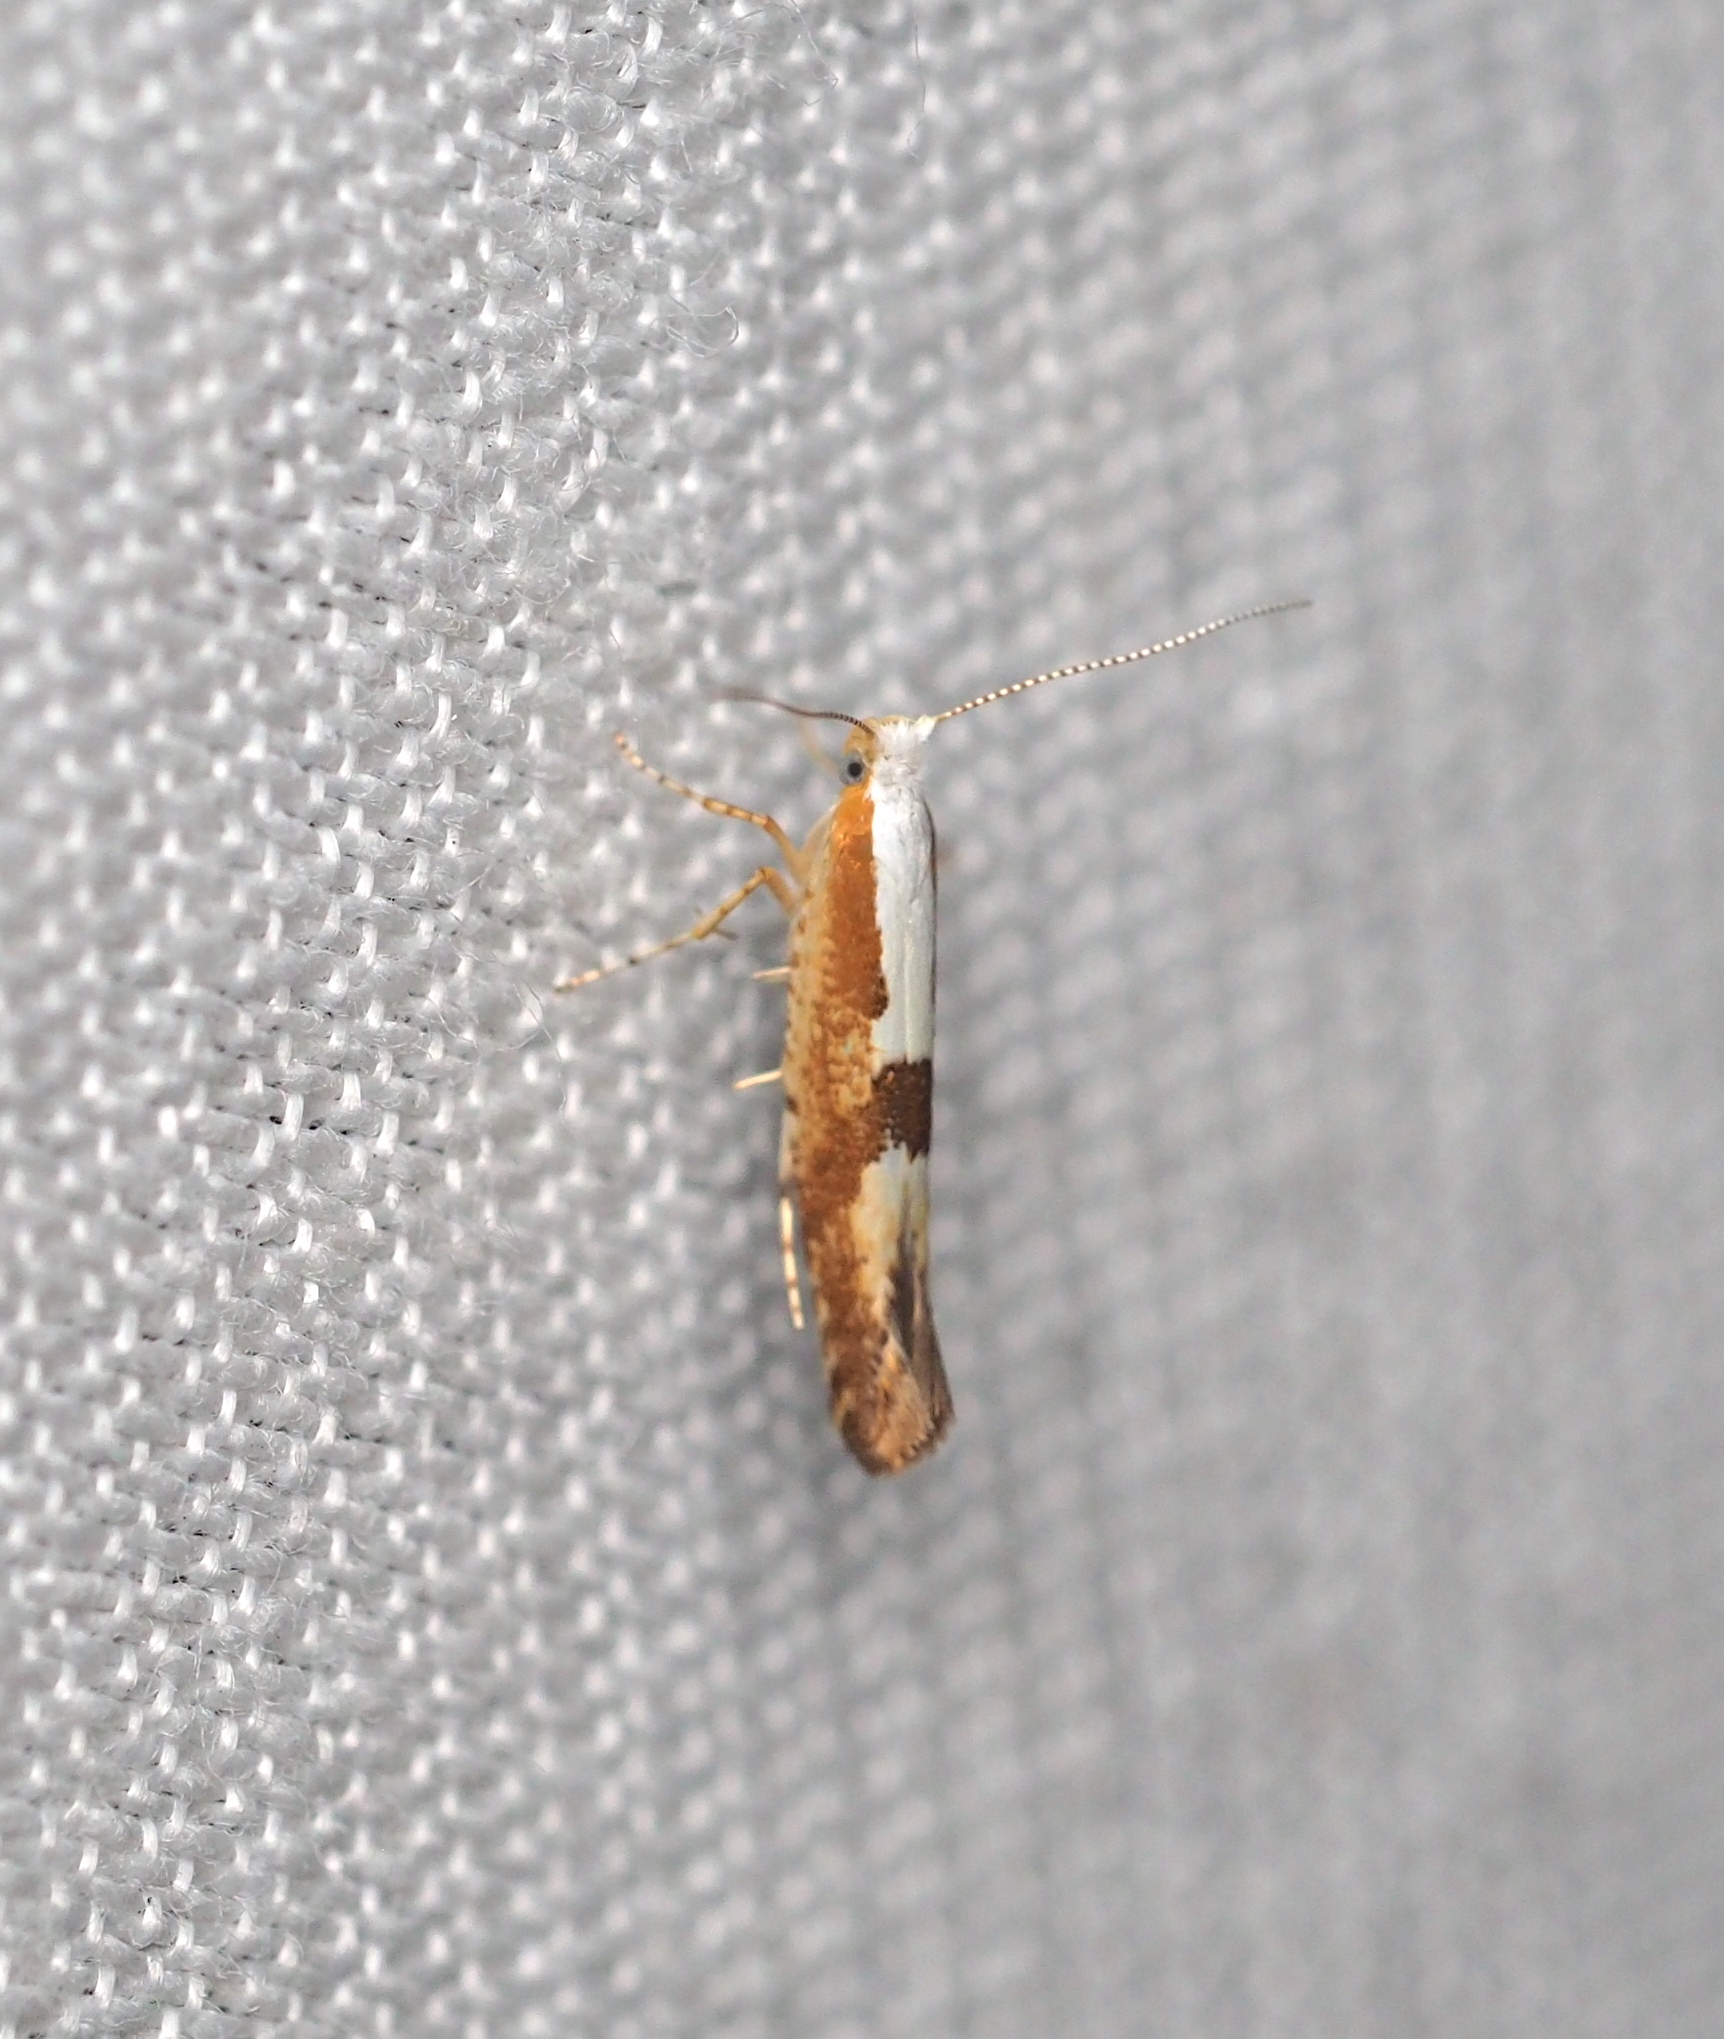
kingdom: Animalia
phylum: Arthropoda
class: Insecta
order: Lepidoptera
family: Argyresthiidae
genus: Argyresthia
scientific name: Argyresthia pruniella
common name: Cherry fruit moth
